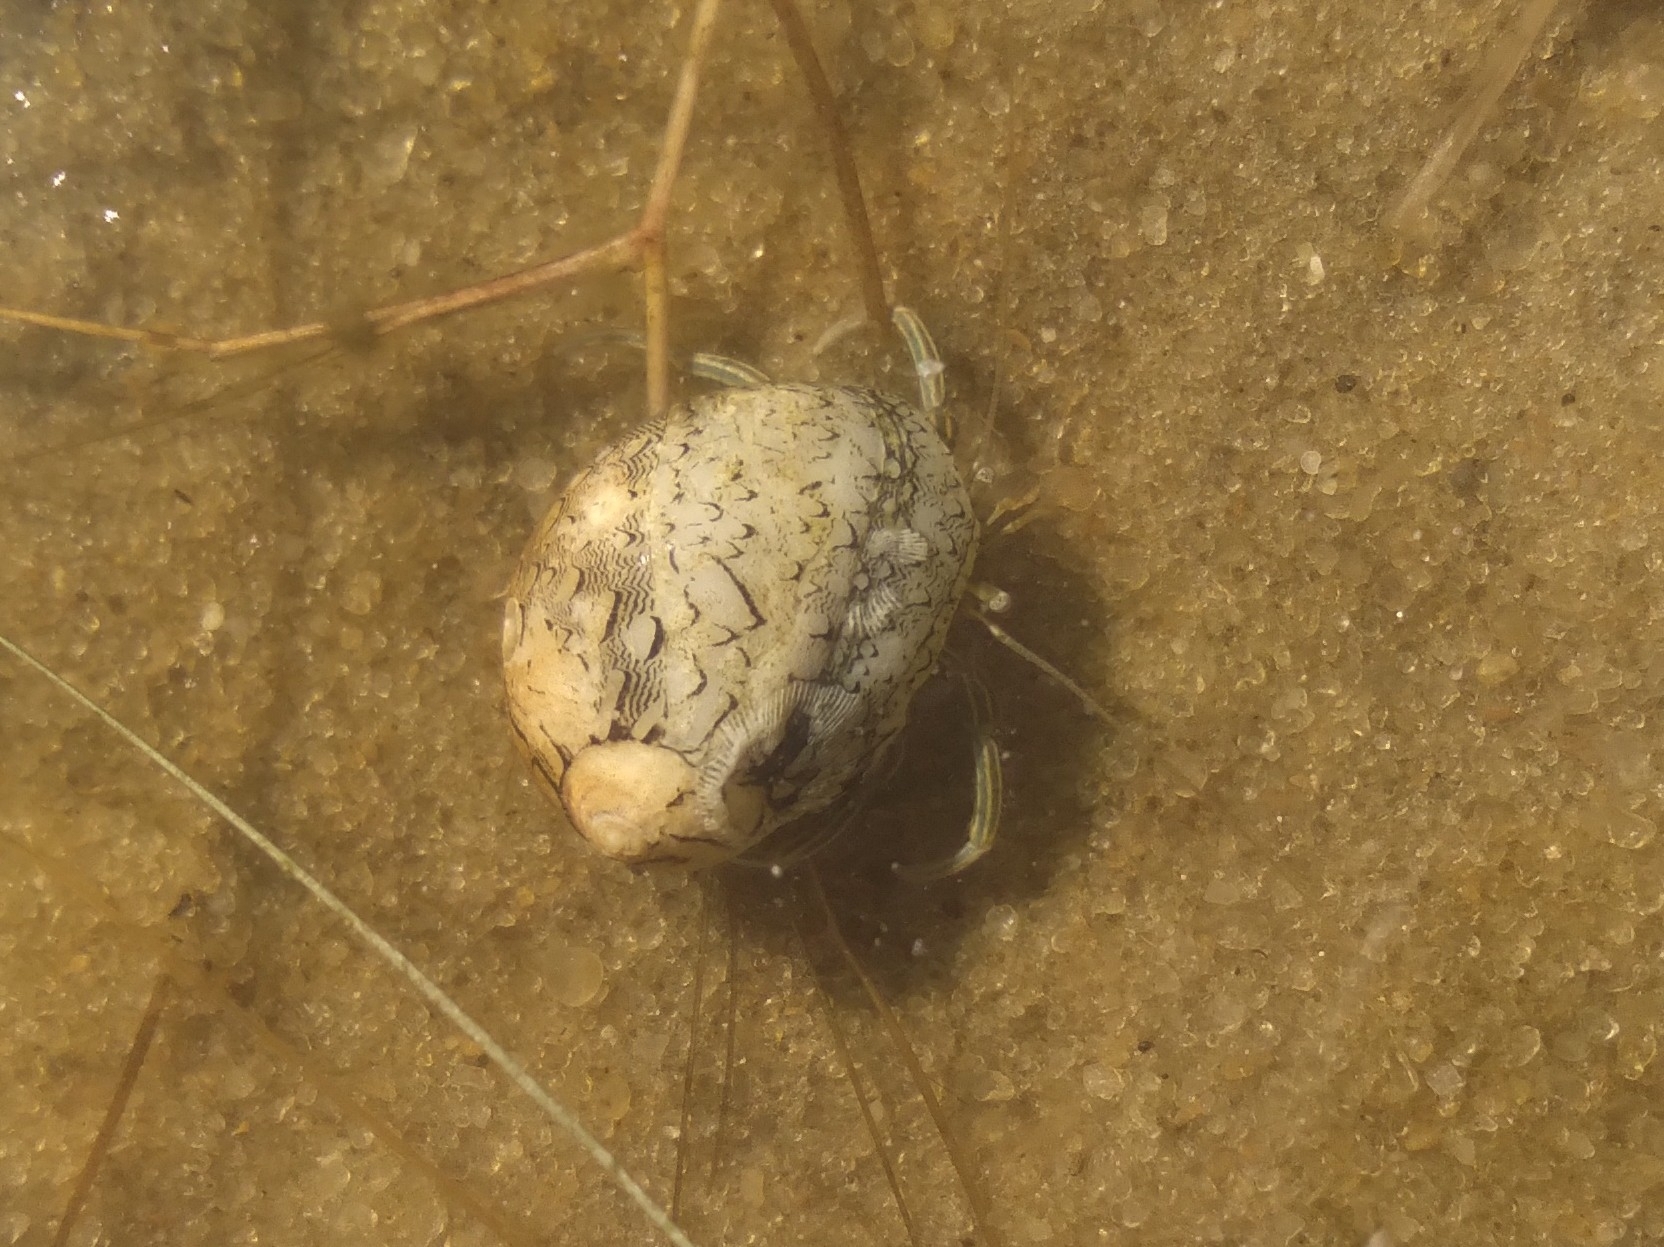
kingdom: Animalia
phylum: Arthropoda
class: Malacostraca
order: Decapoda
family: Diogenidae
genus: Clibanarius
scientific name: Clibanarius symmetricus
